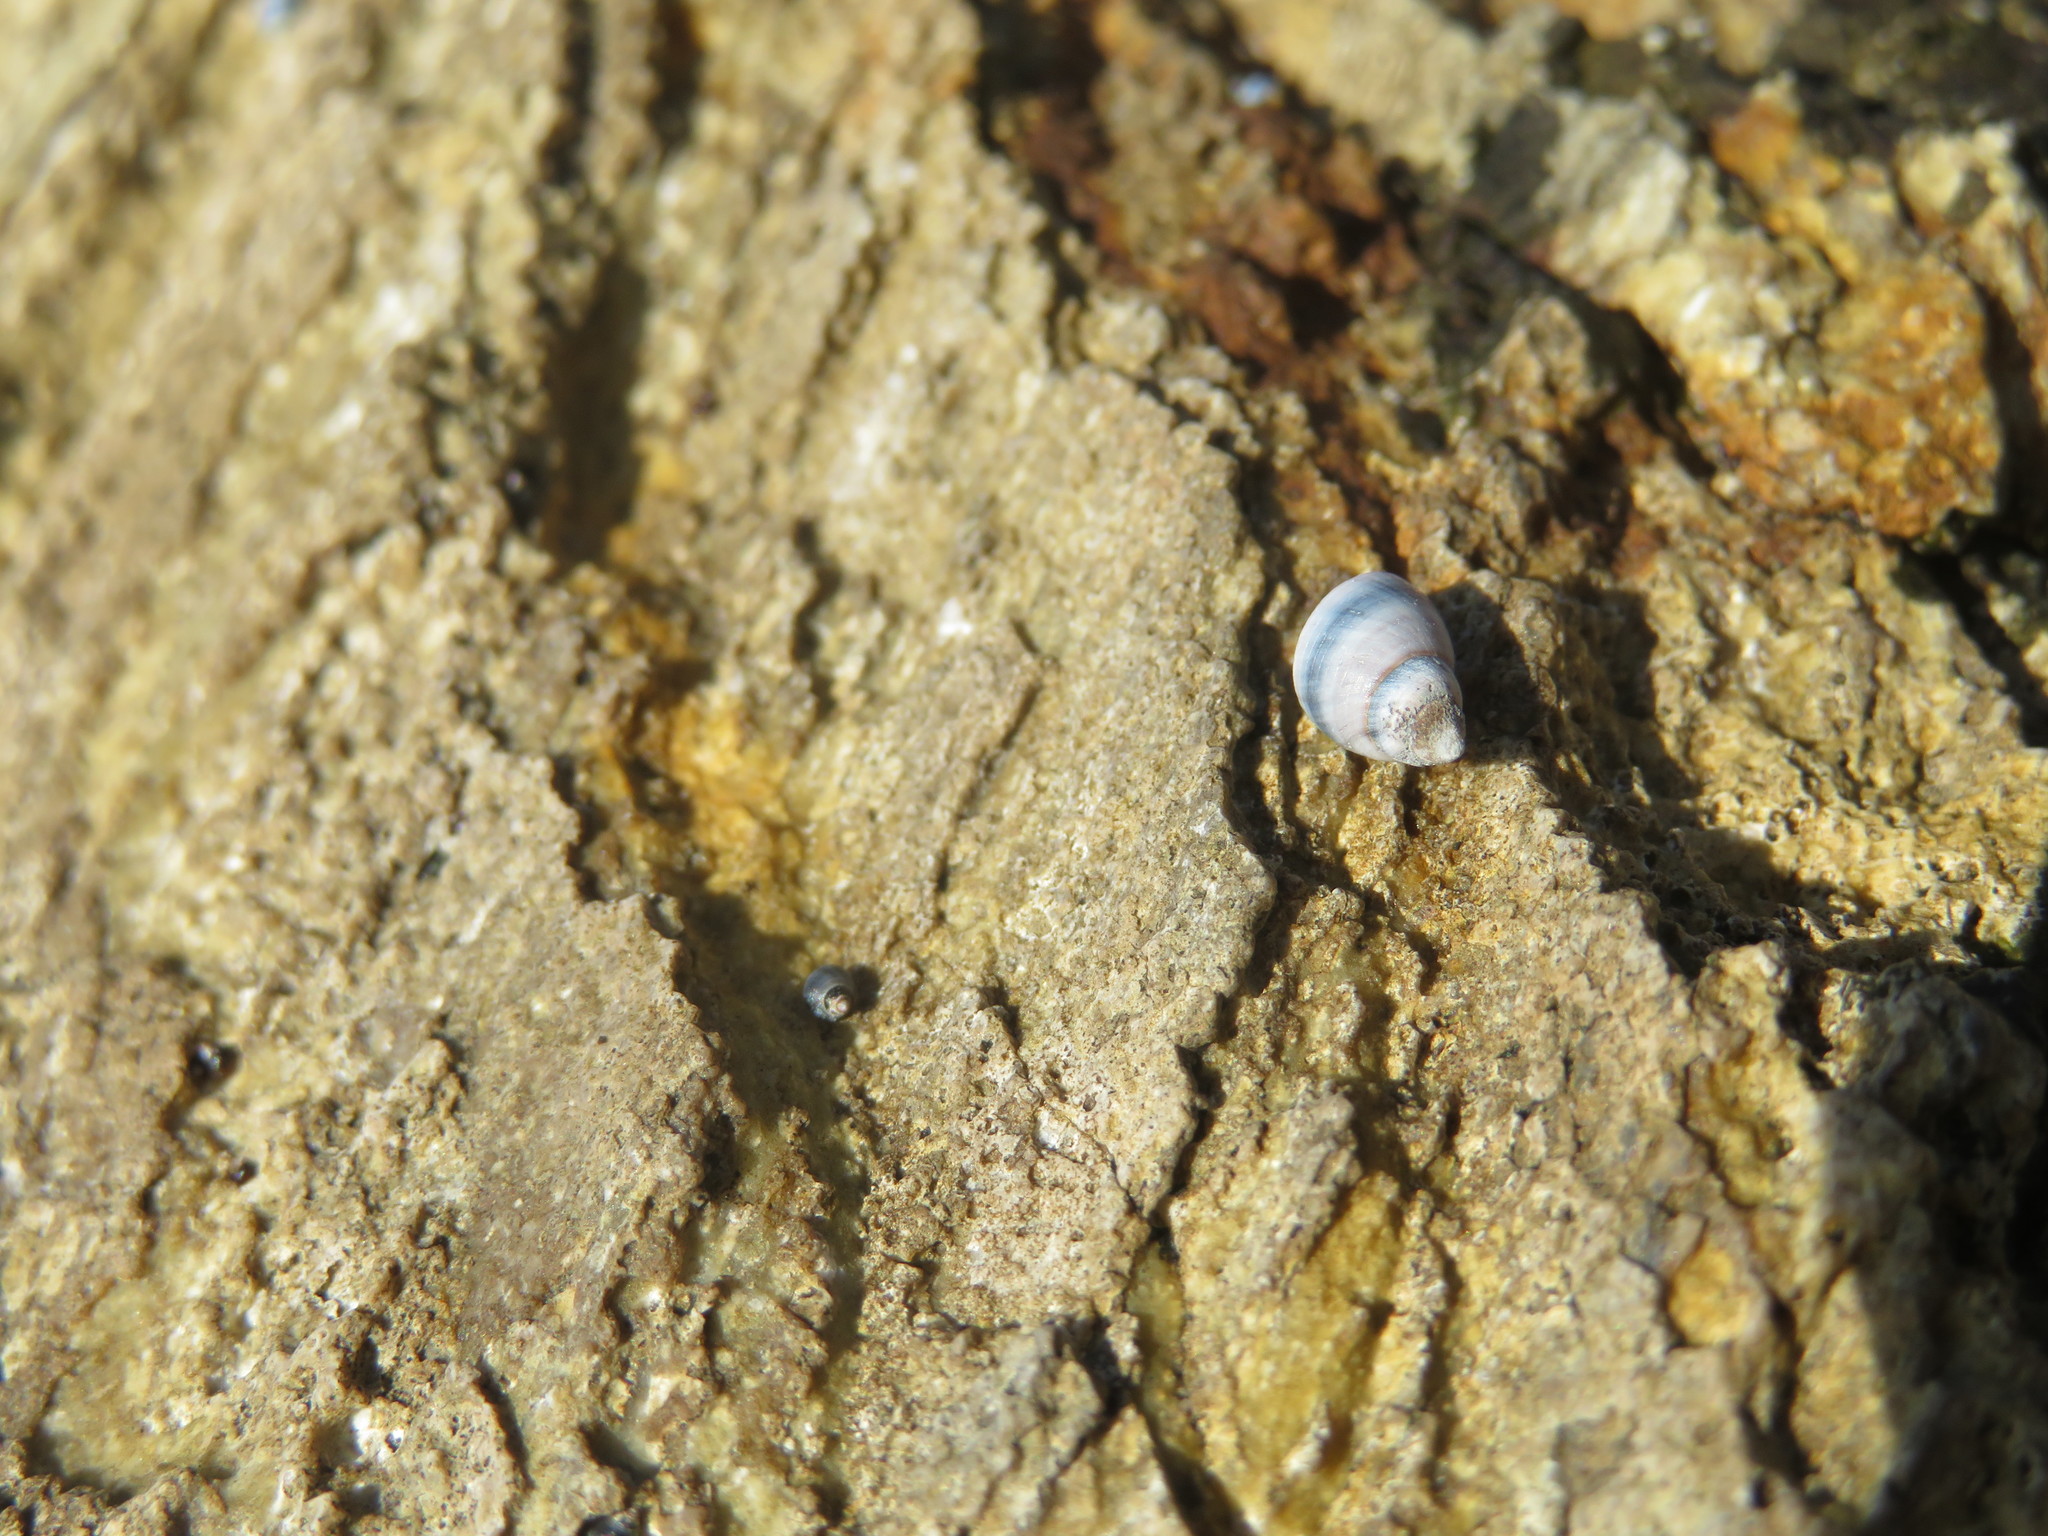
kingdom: Animalia
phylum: Mollusca
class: Gastropoda
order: Littorinimorpha
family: Littorinidae
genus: Austrolittorina
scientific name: Austrolittorina antipodum
